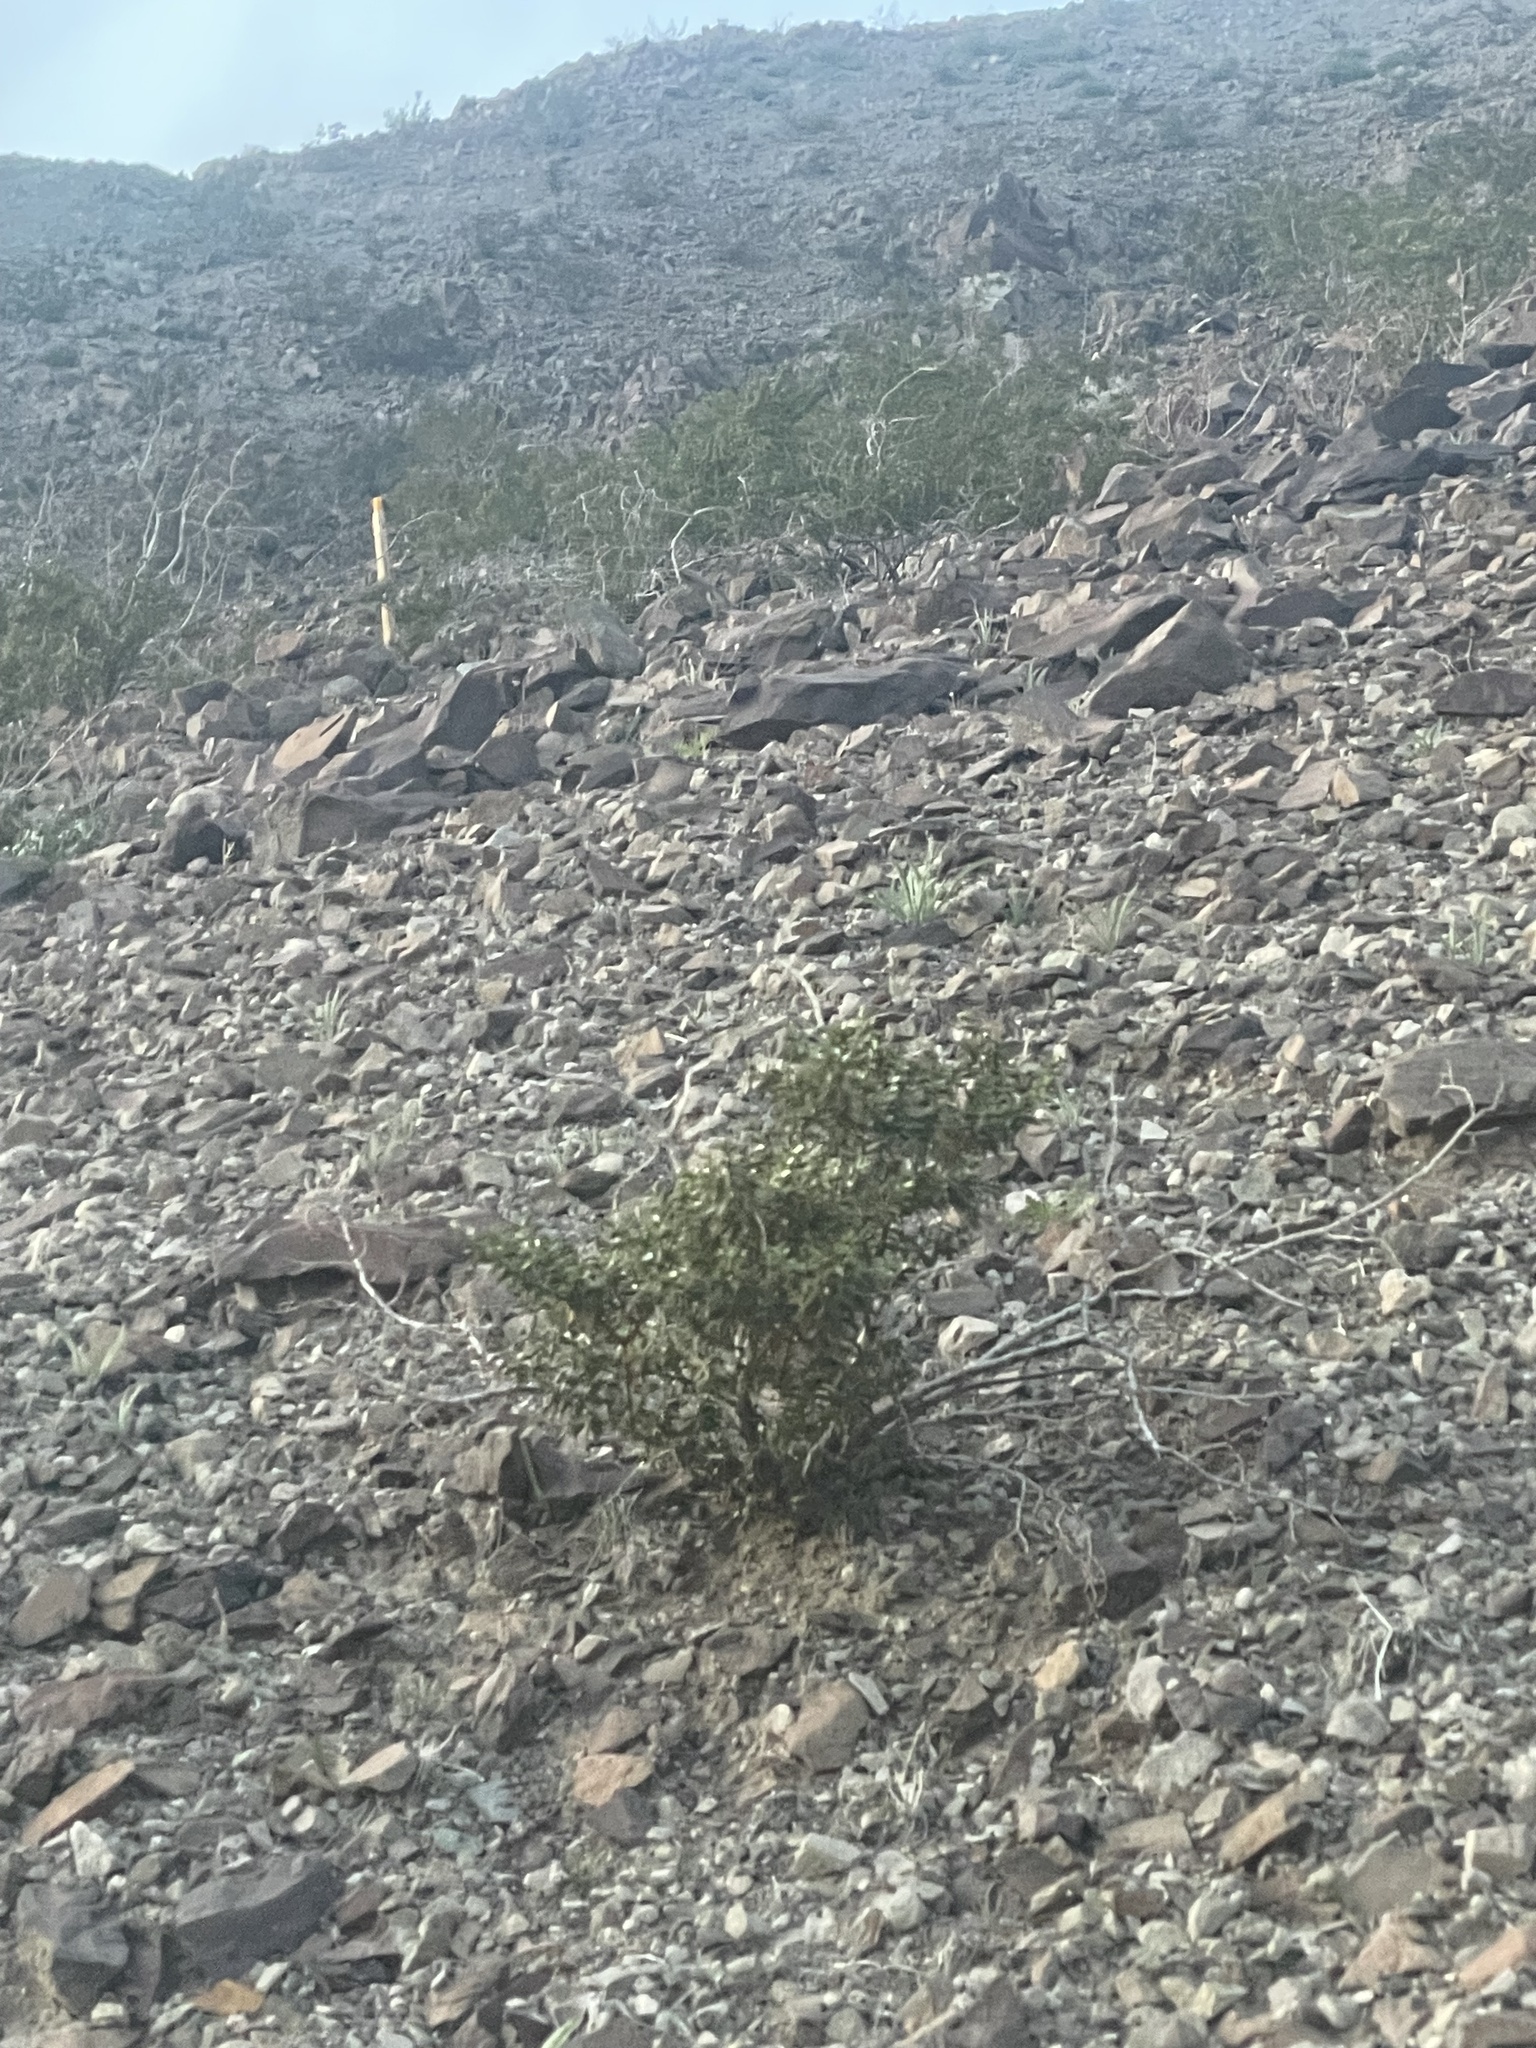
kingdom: Plantae
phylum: Tracheophyta
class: Magnoliopsida
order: Zygophyllales
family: Zygophyllaceae
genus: Larrea
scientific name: Larrea tridentata
